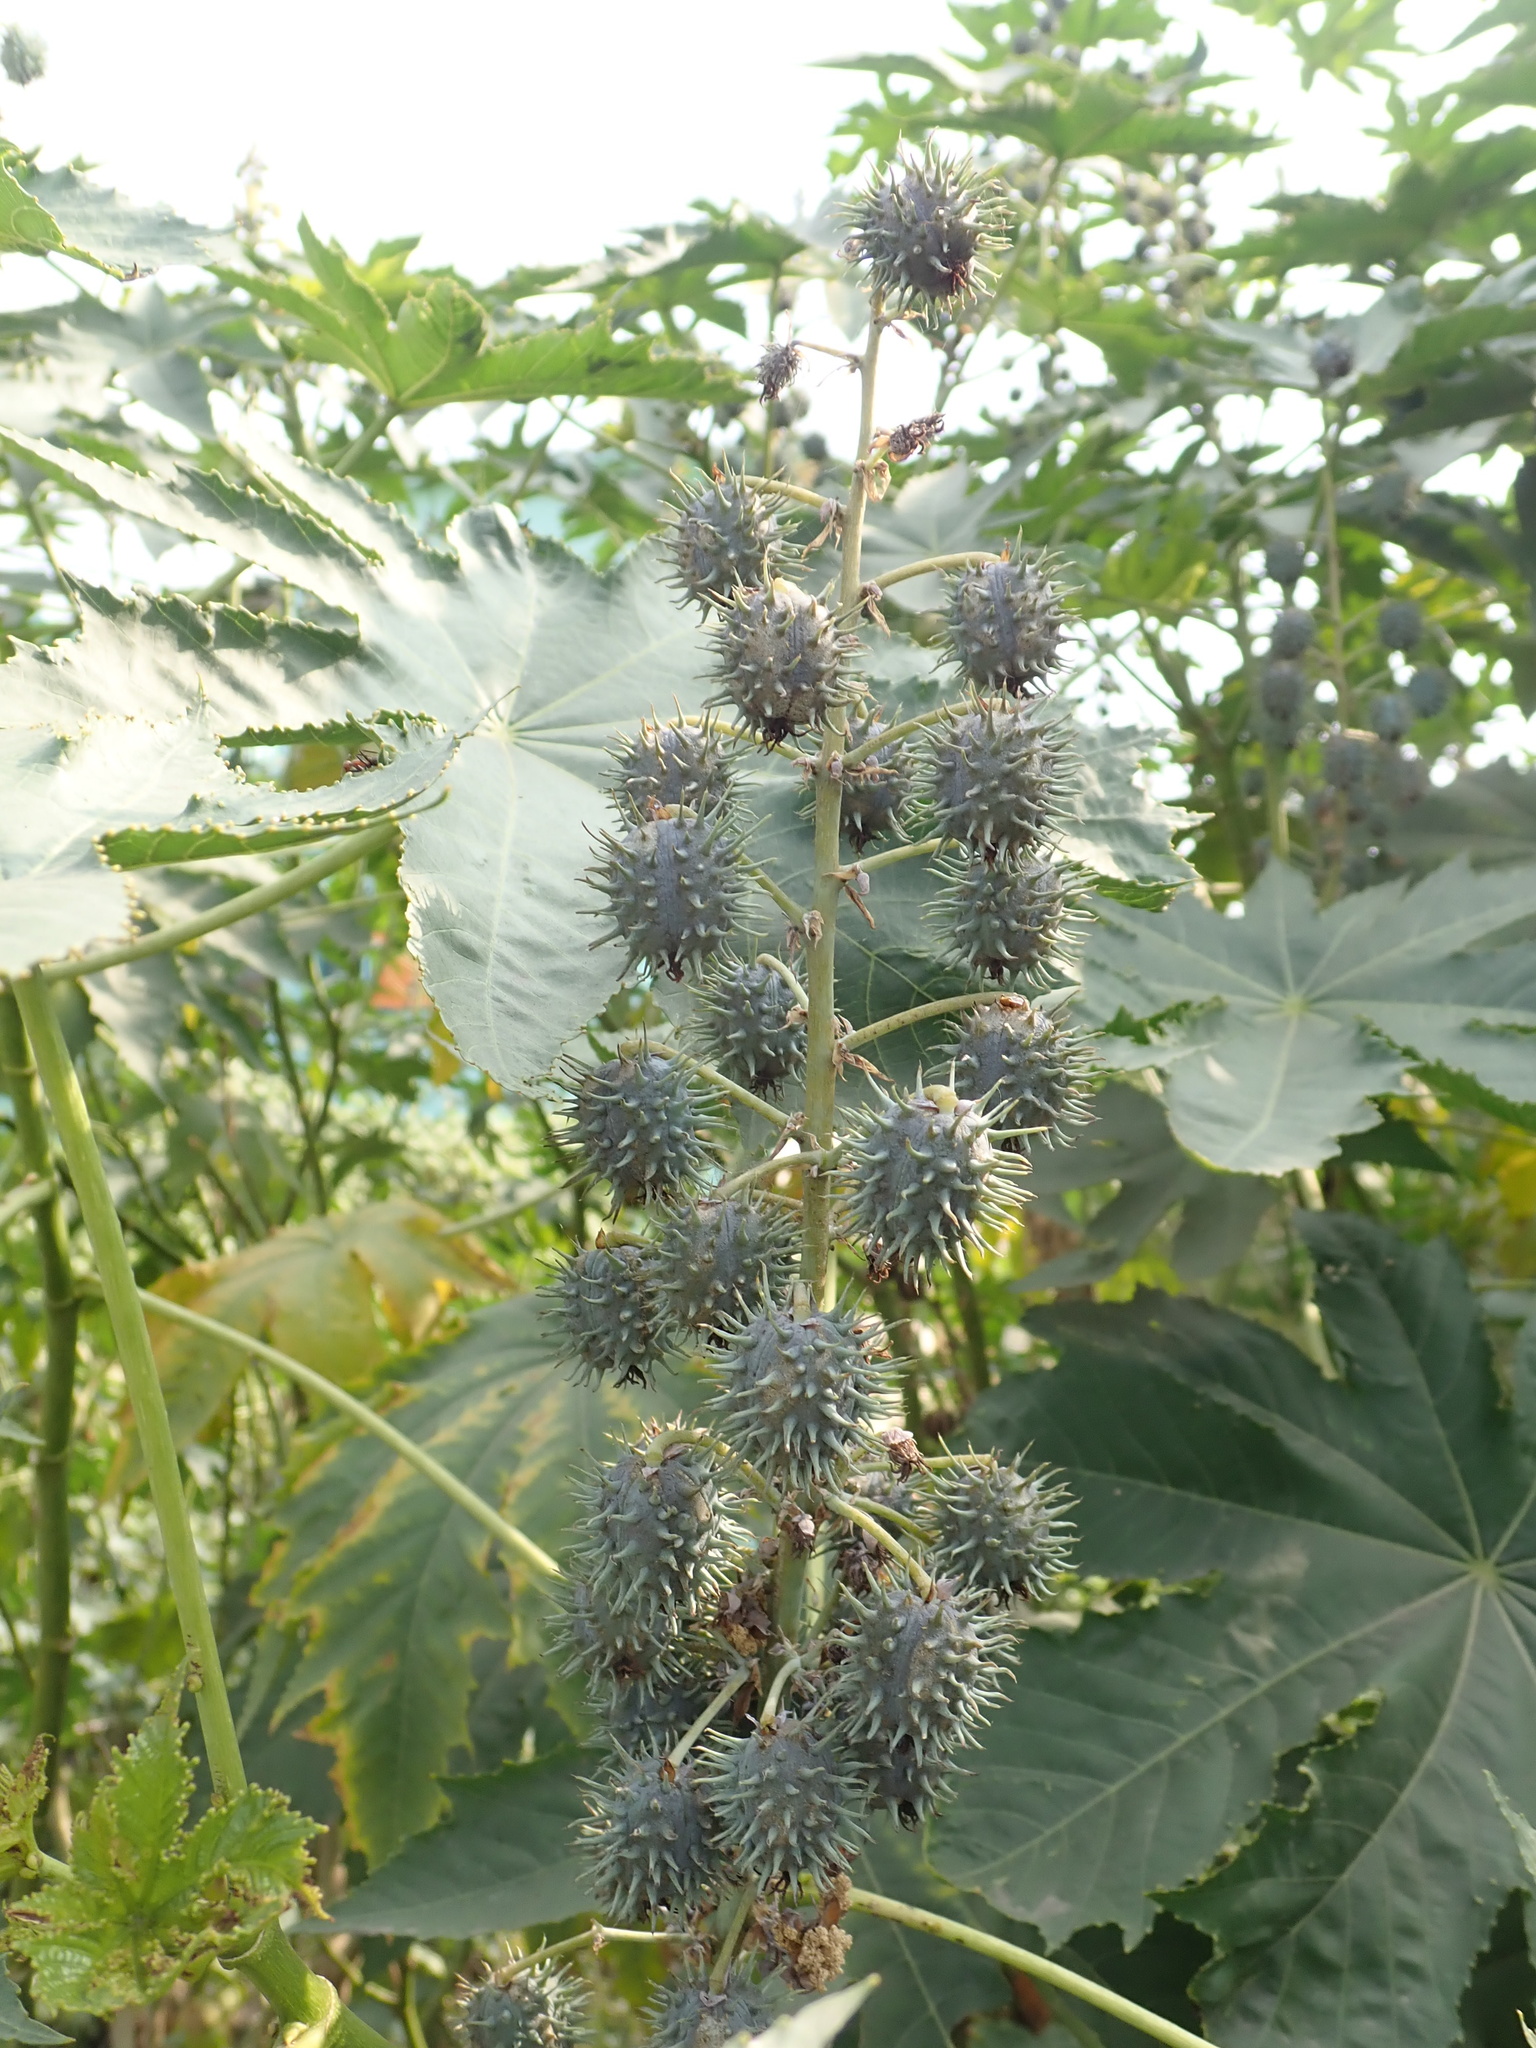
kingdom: Plantae
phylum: Tracheophyta
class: Magnoliopsida
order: Malpighiales
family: Euphorbiaceae
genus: Ricinus
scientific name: Ricinus communis
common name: Castor-oil-plant
